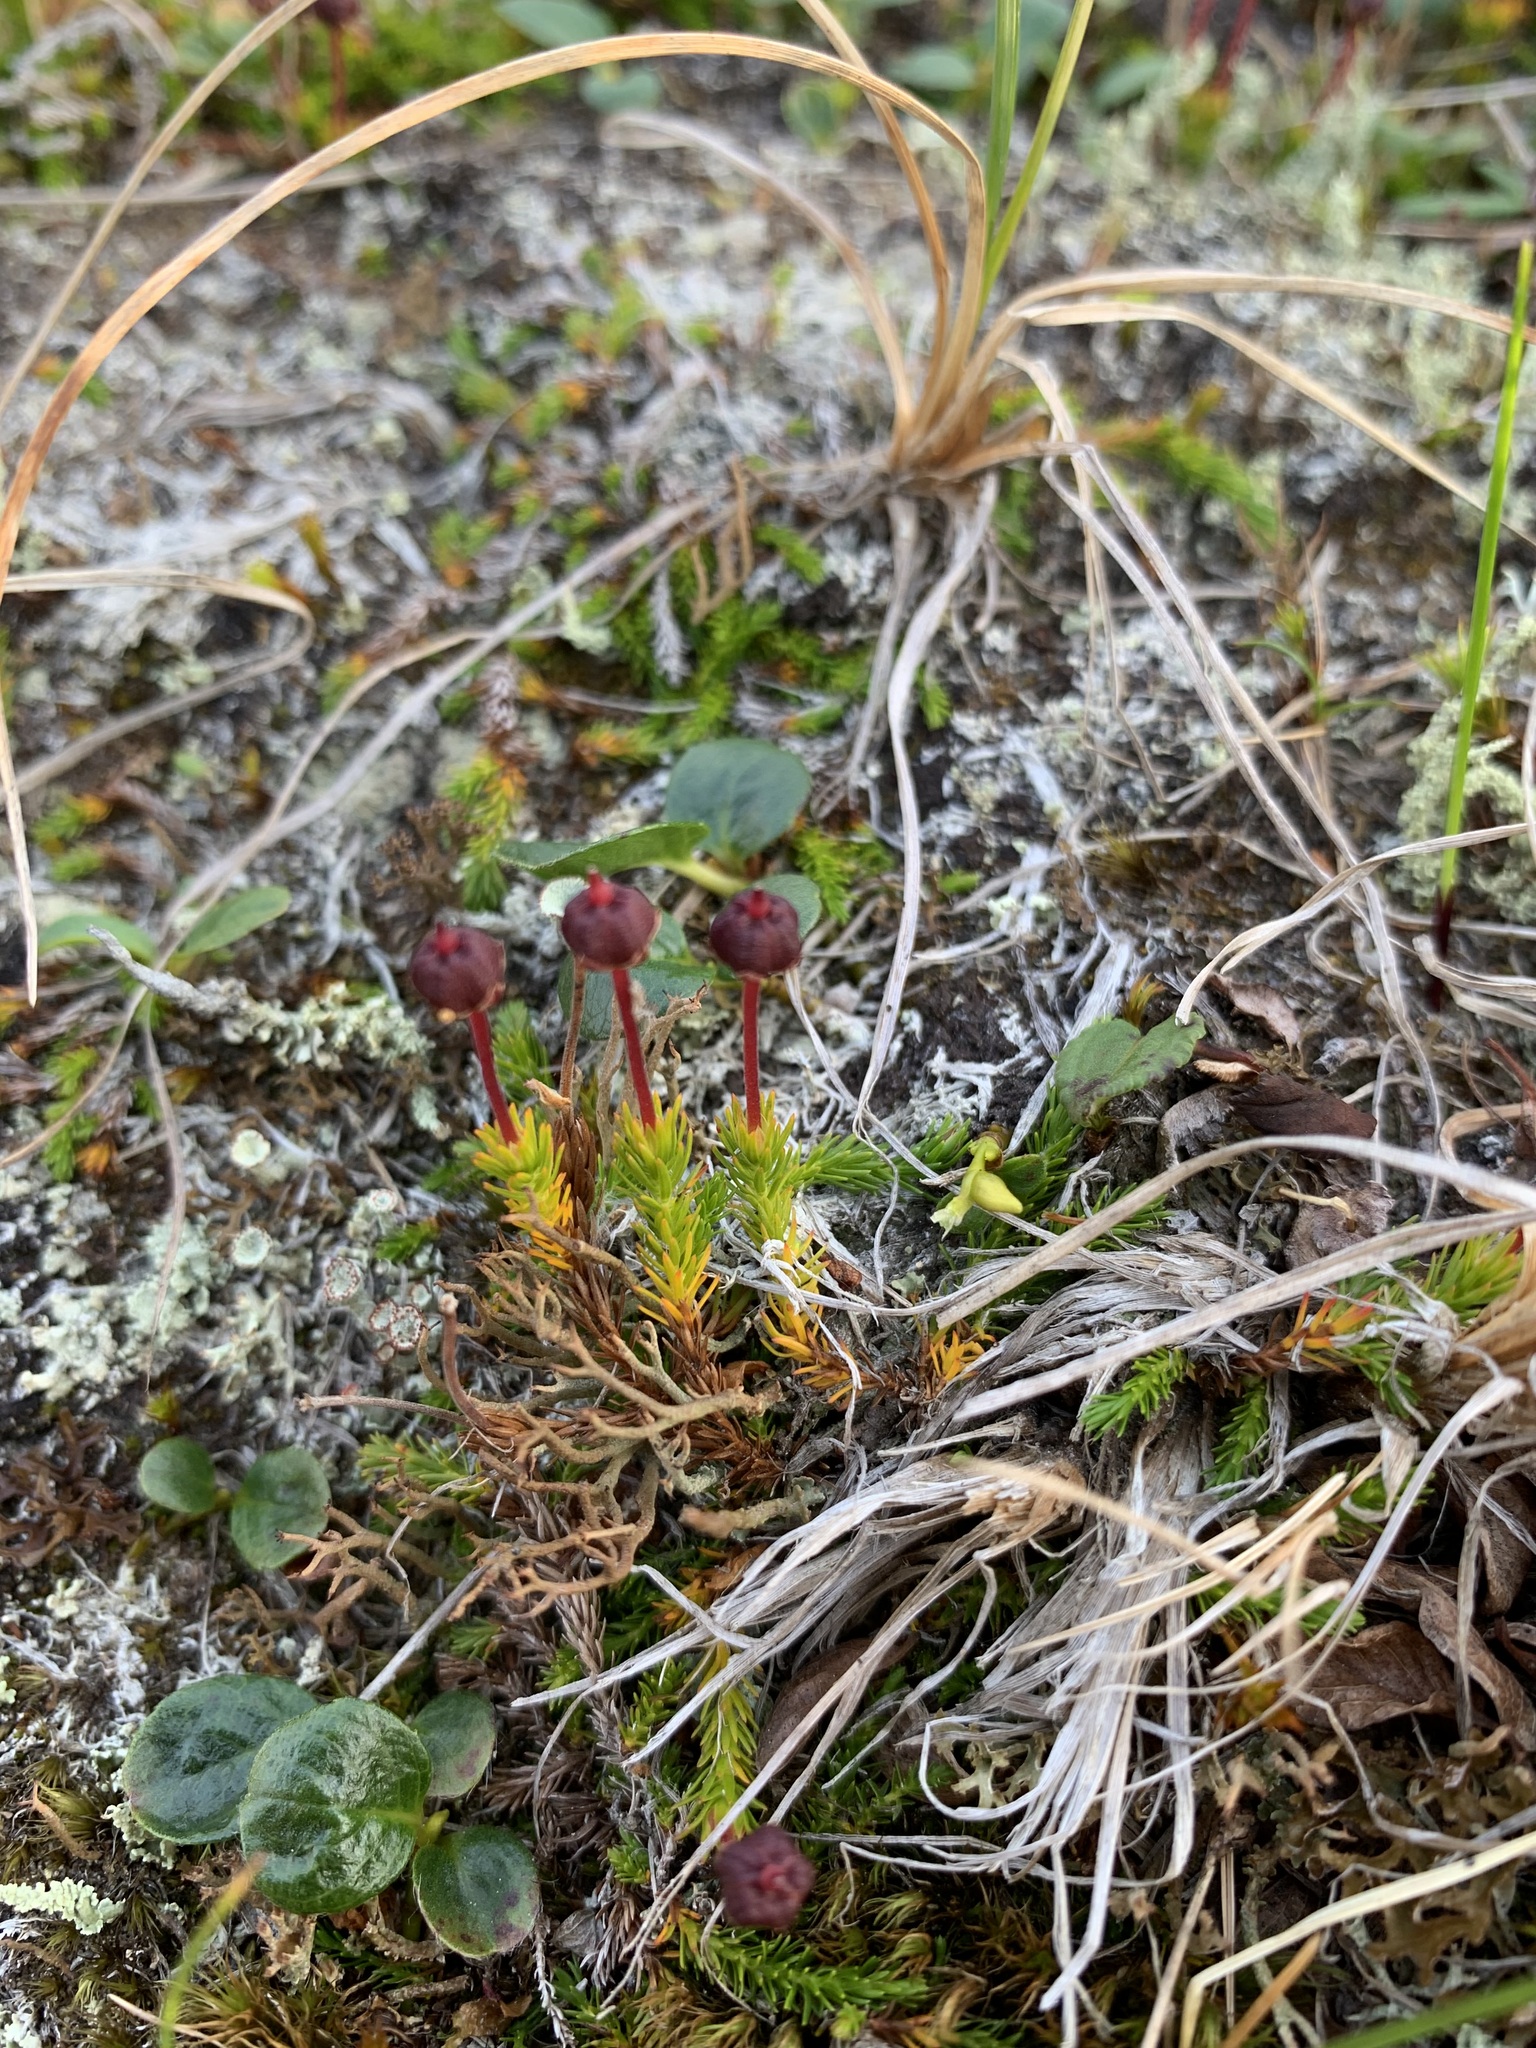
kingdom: Plantae
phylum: Tracheophyta
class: Magnoliopsida
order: Ericales
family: Ericaceae
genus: Harrimanella
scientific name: Harrimanella hypnoides
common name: Moss bell heather
